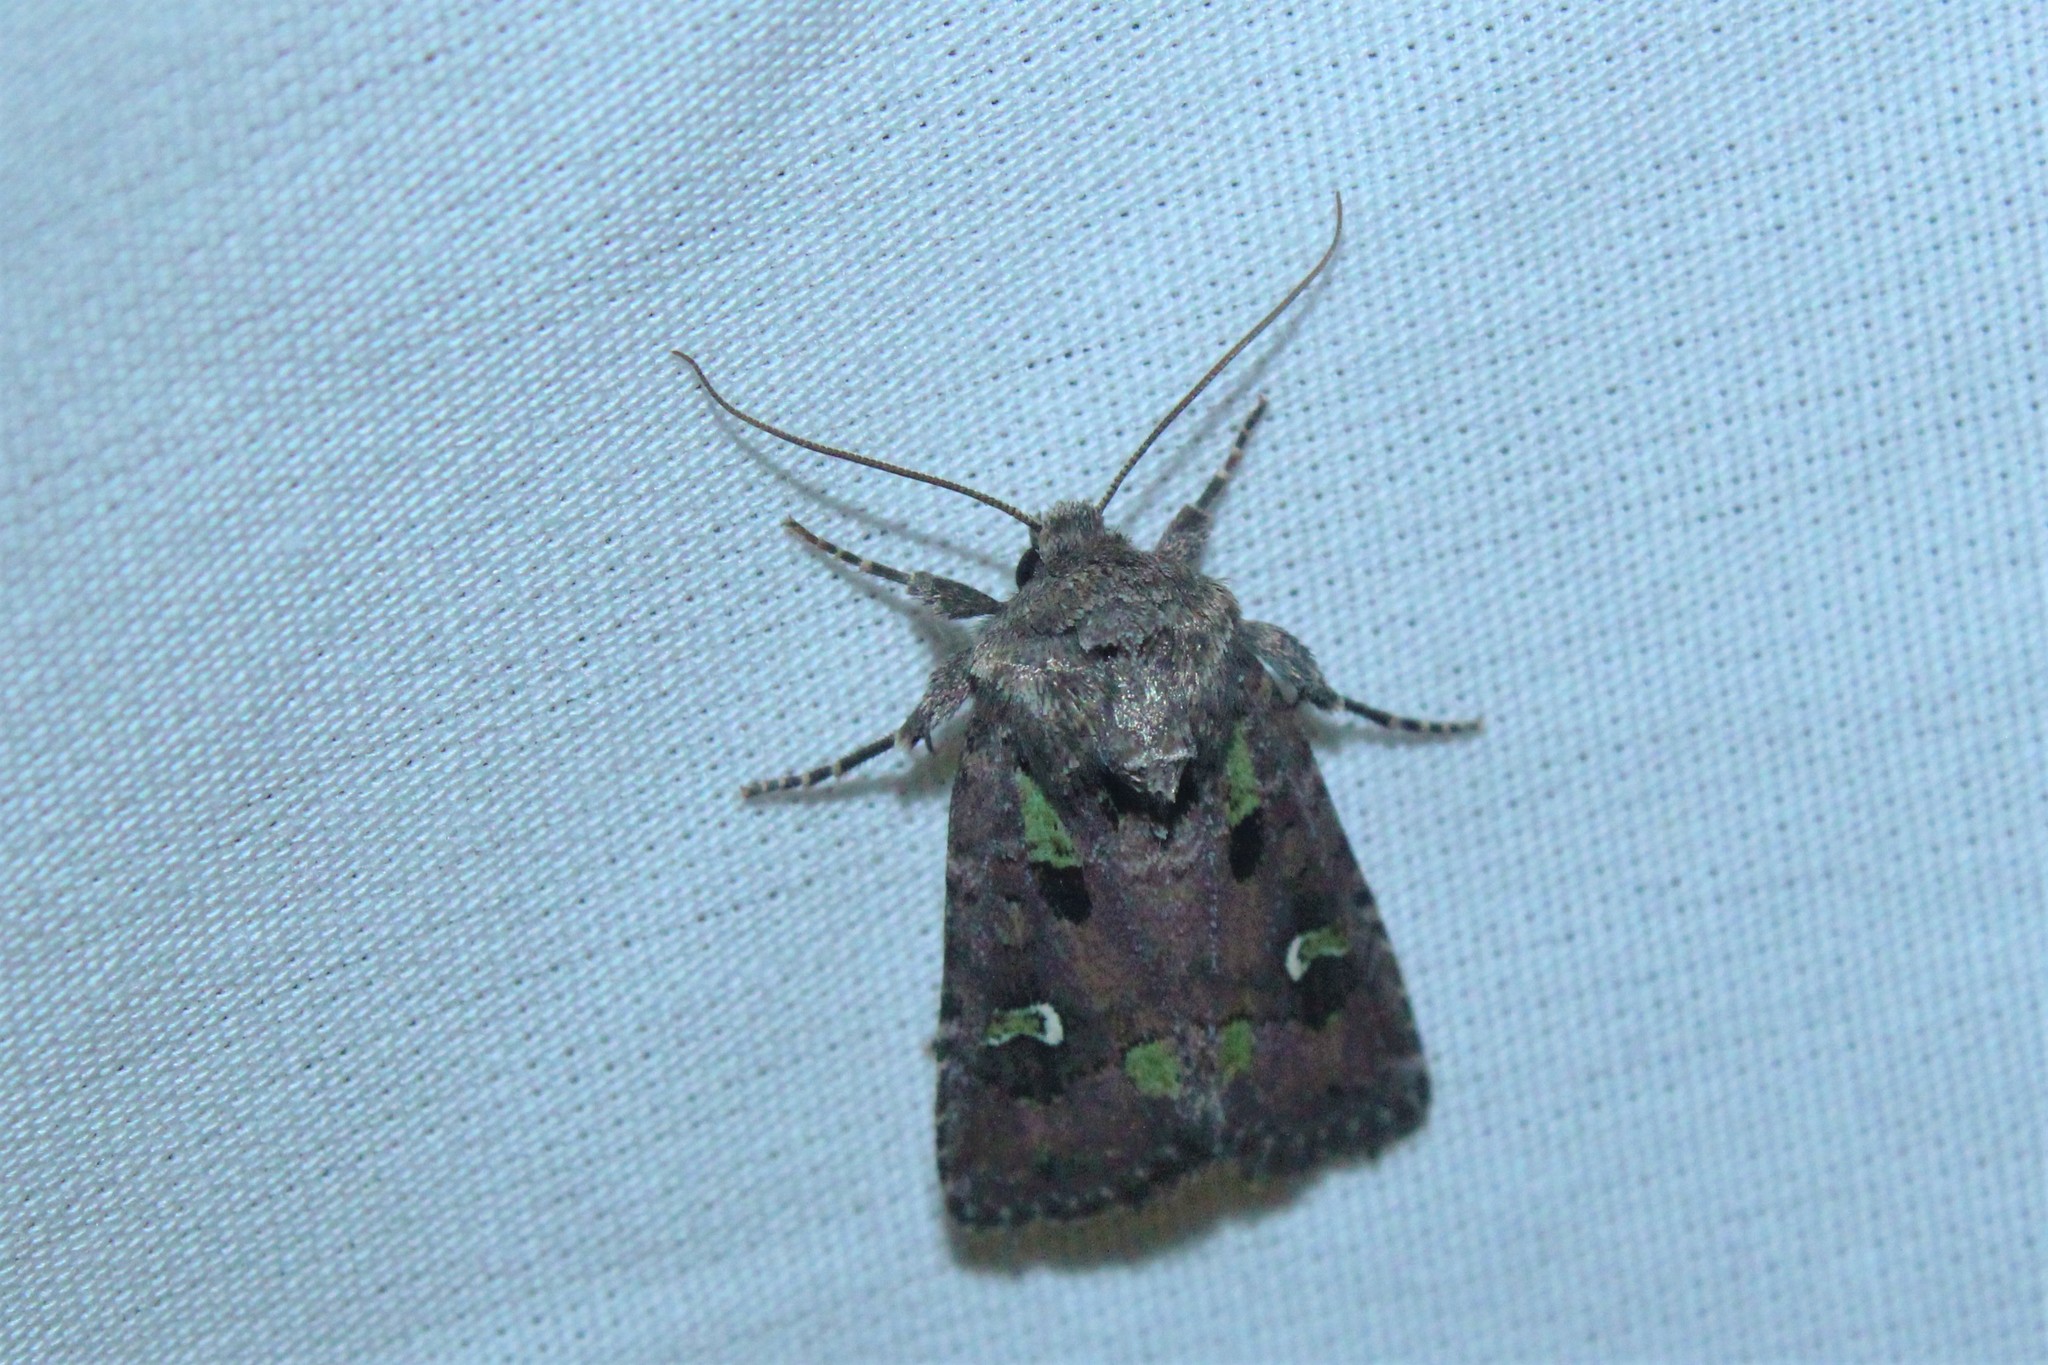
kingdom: Animalia
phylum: Arthropoda
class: Insecta
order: Lepidoptera
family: Noctuidae
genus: Lacinipolia
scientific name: Lacinipolia renigera
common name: Kidney-spotted minor
